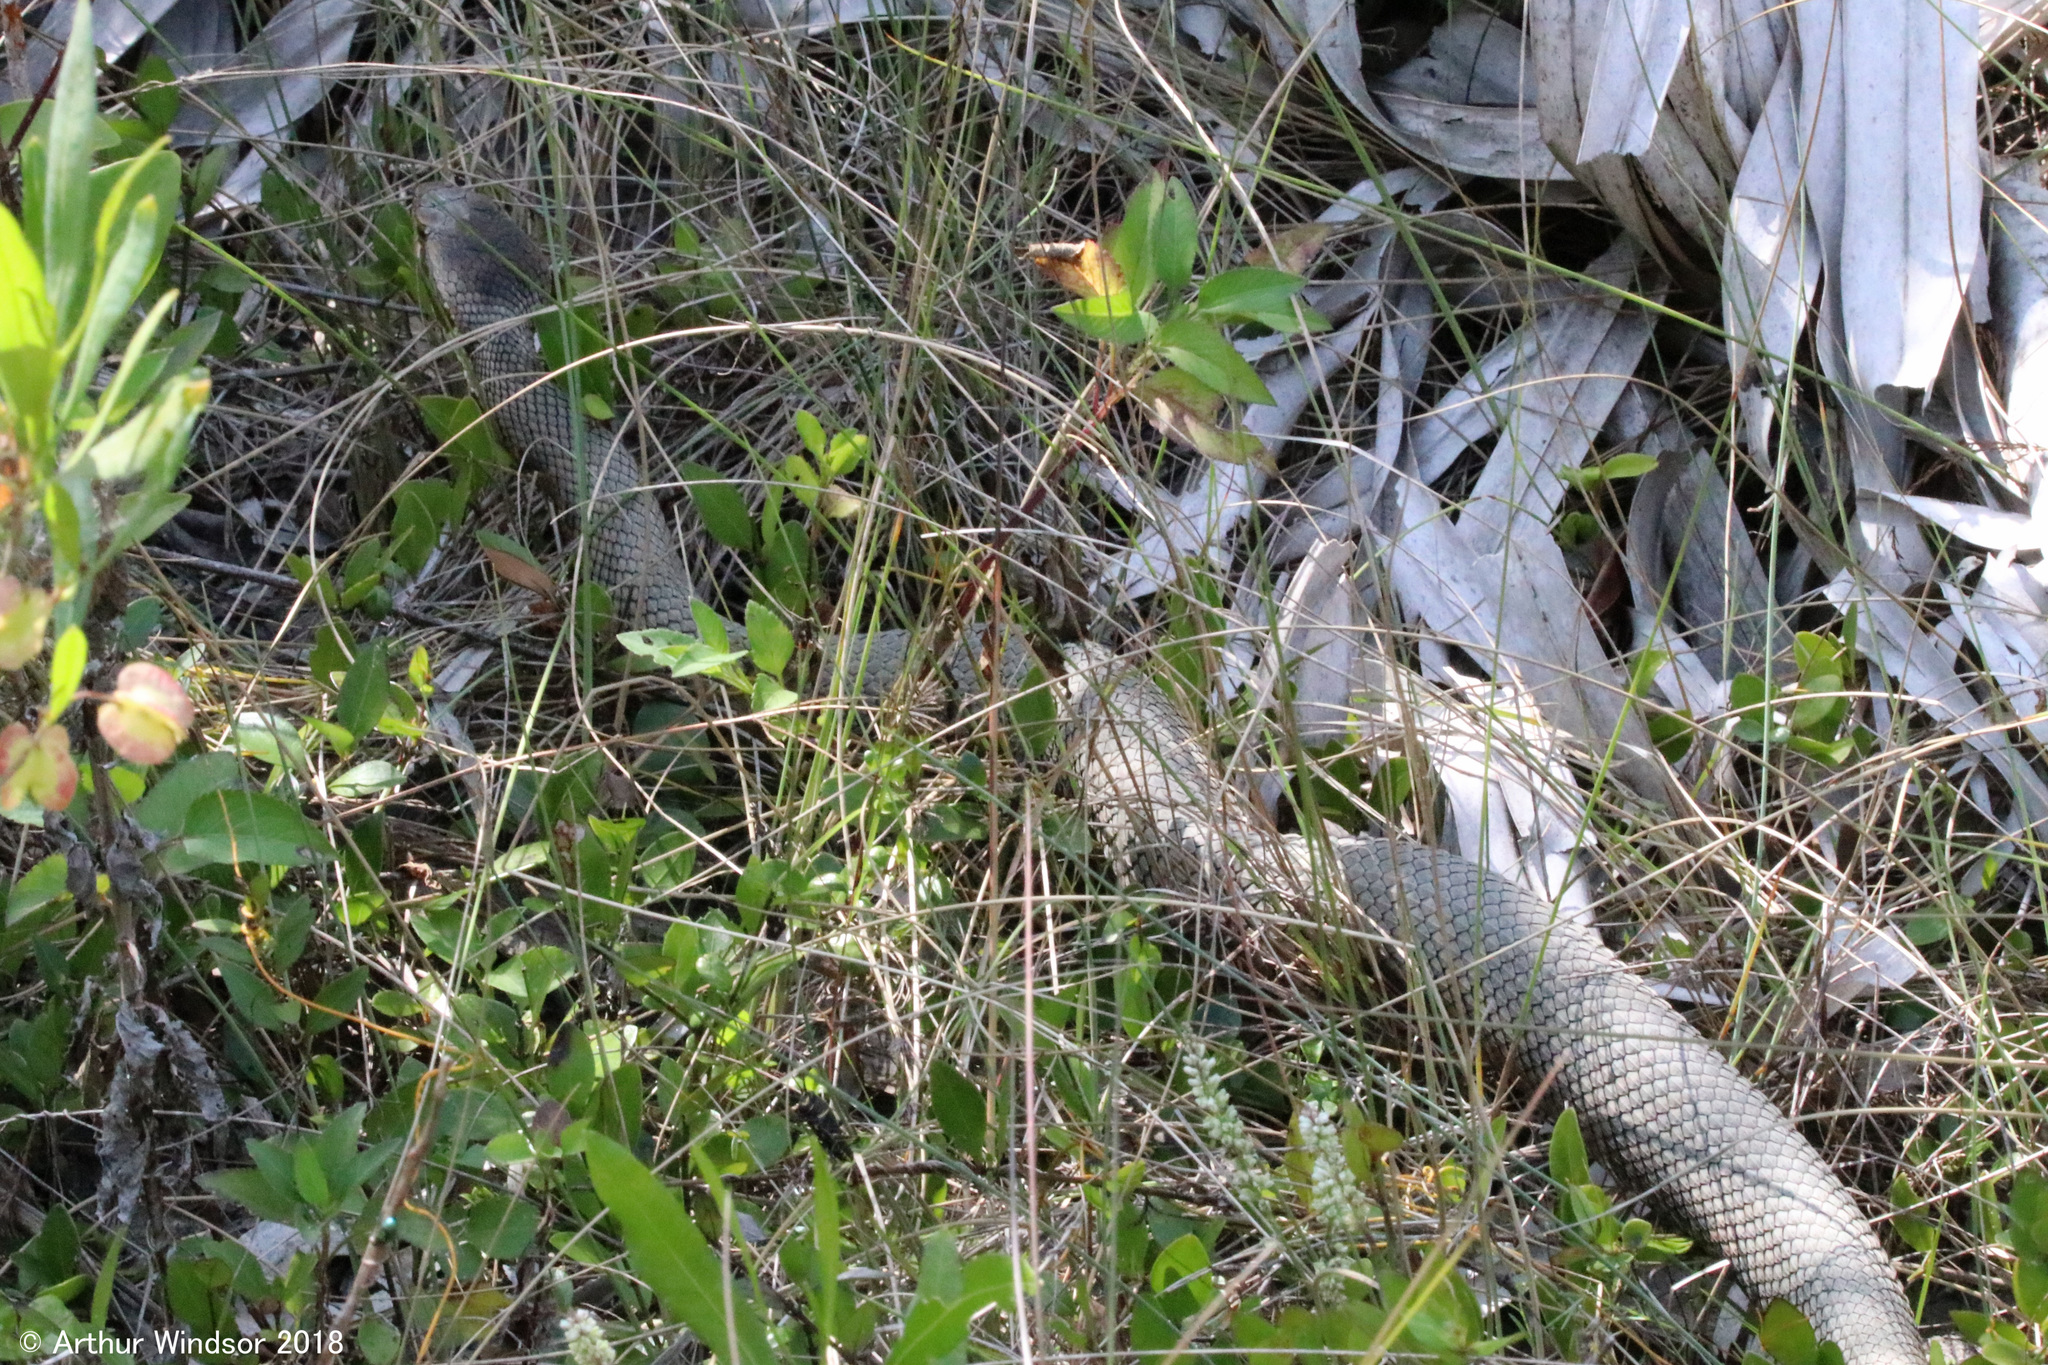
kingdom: Animalia
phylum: Chordata
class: Squamata
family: Viperidae
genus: Agkistrodon
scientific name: Agkistrodon conanti
